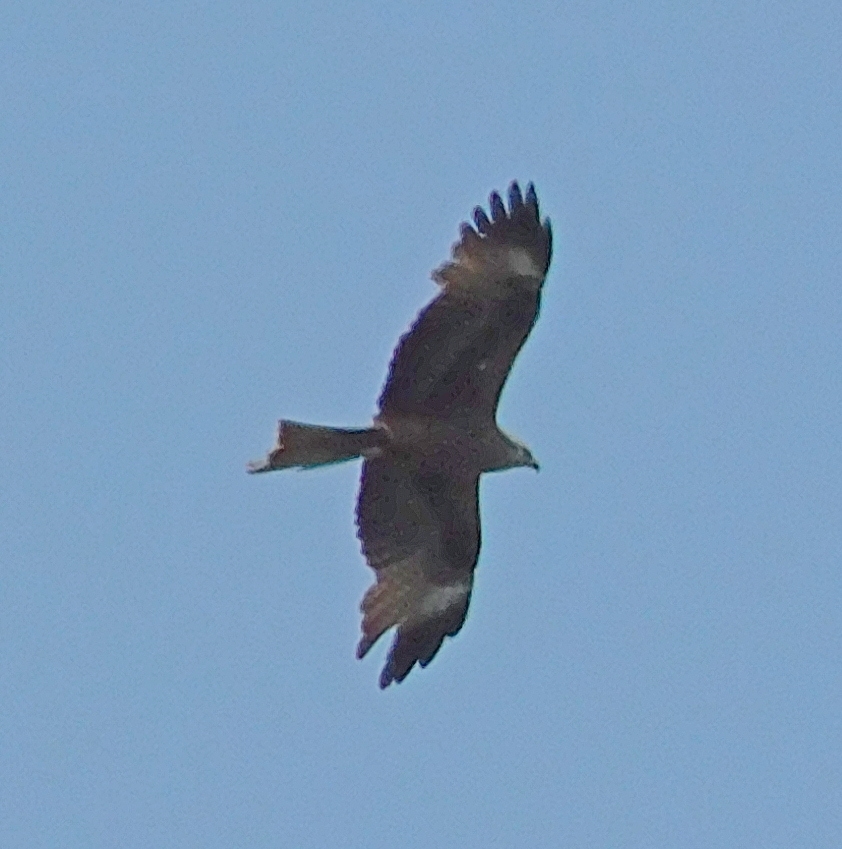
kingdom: Animalia
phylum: Chordata
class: Aves
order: Accipitriformes
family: Accipitridae
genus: Milvus
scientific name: Milvus migrans
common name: Black kite
